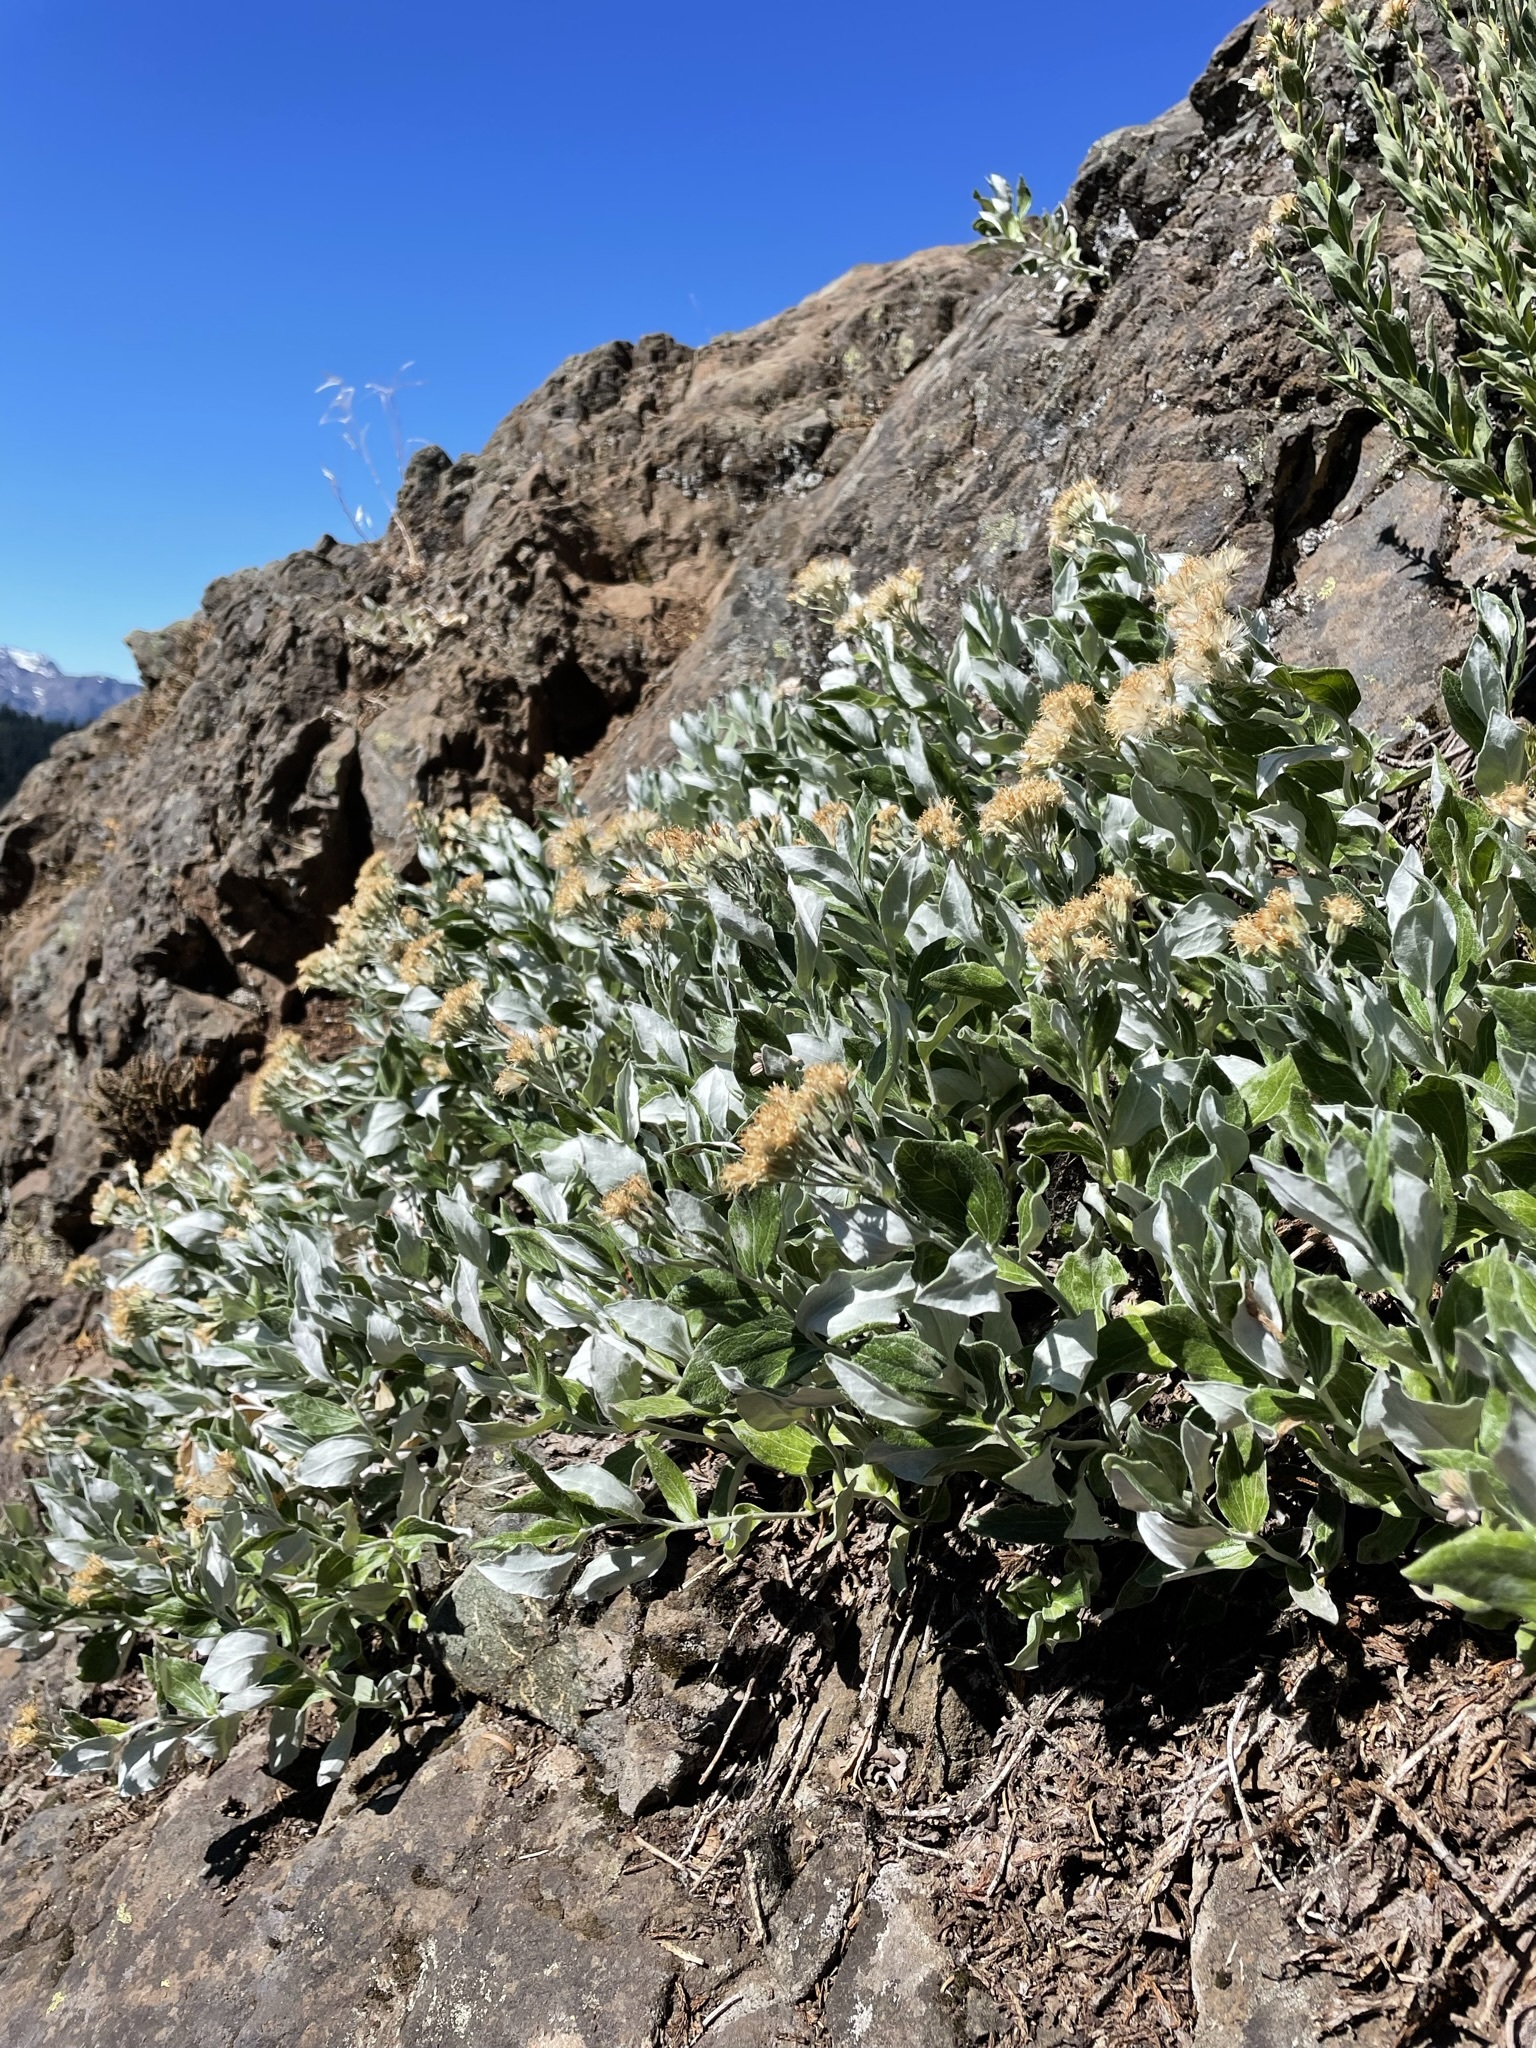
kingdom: Plantae
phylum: Tracheophyta
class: Magnoliopsida
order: Asterales
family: Asteraceae
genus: Luina
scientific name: Luina hypoleuca
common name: Little-leaved luina
